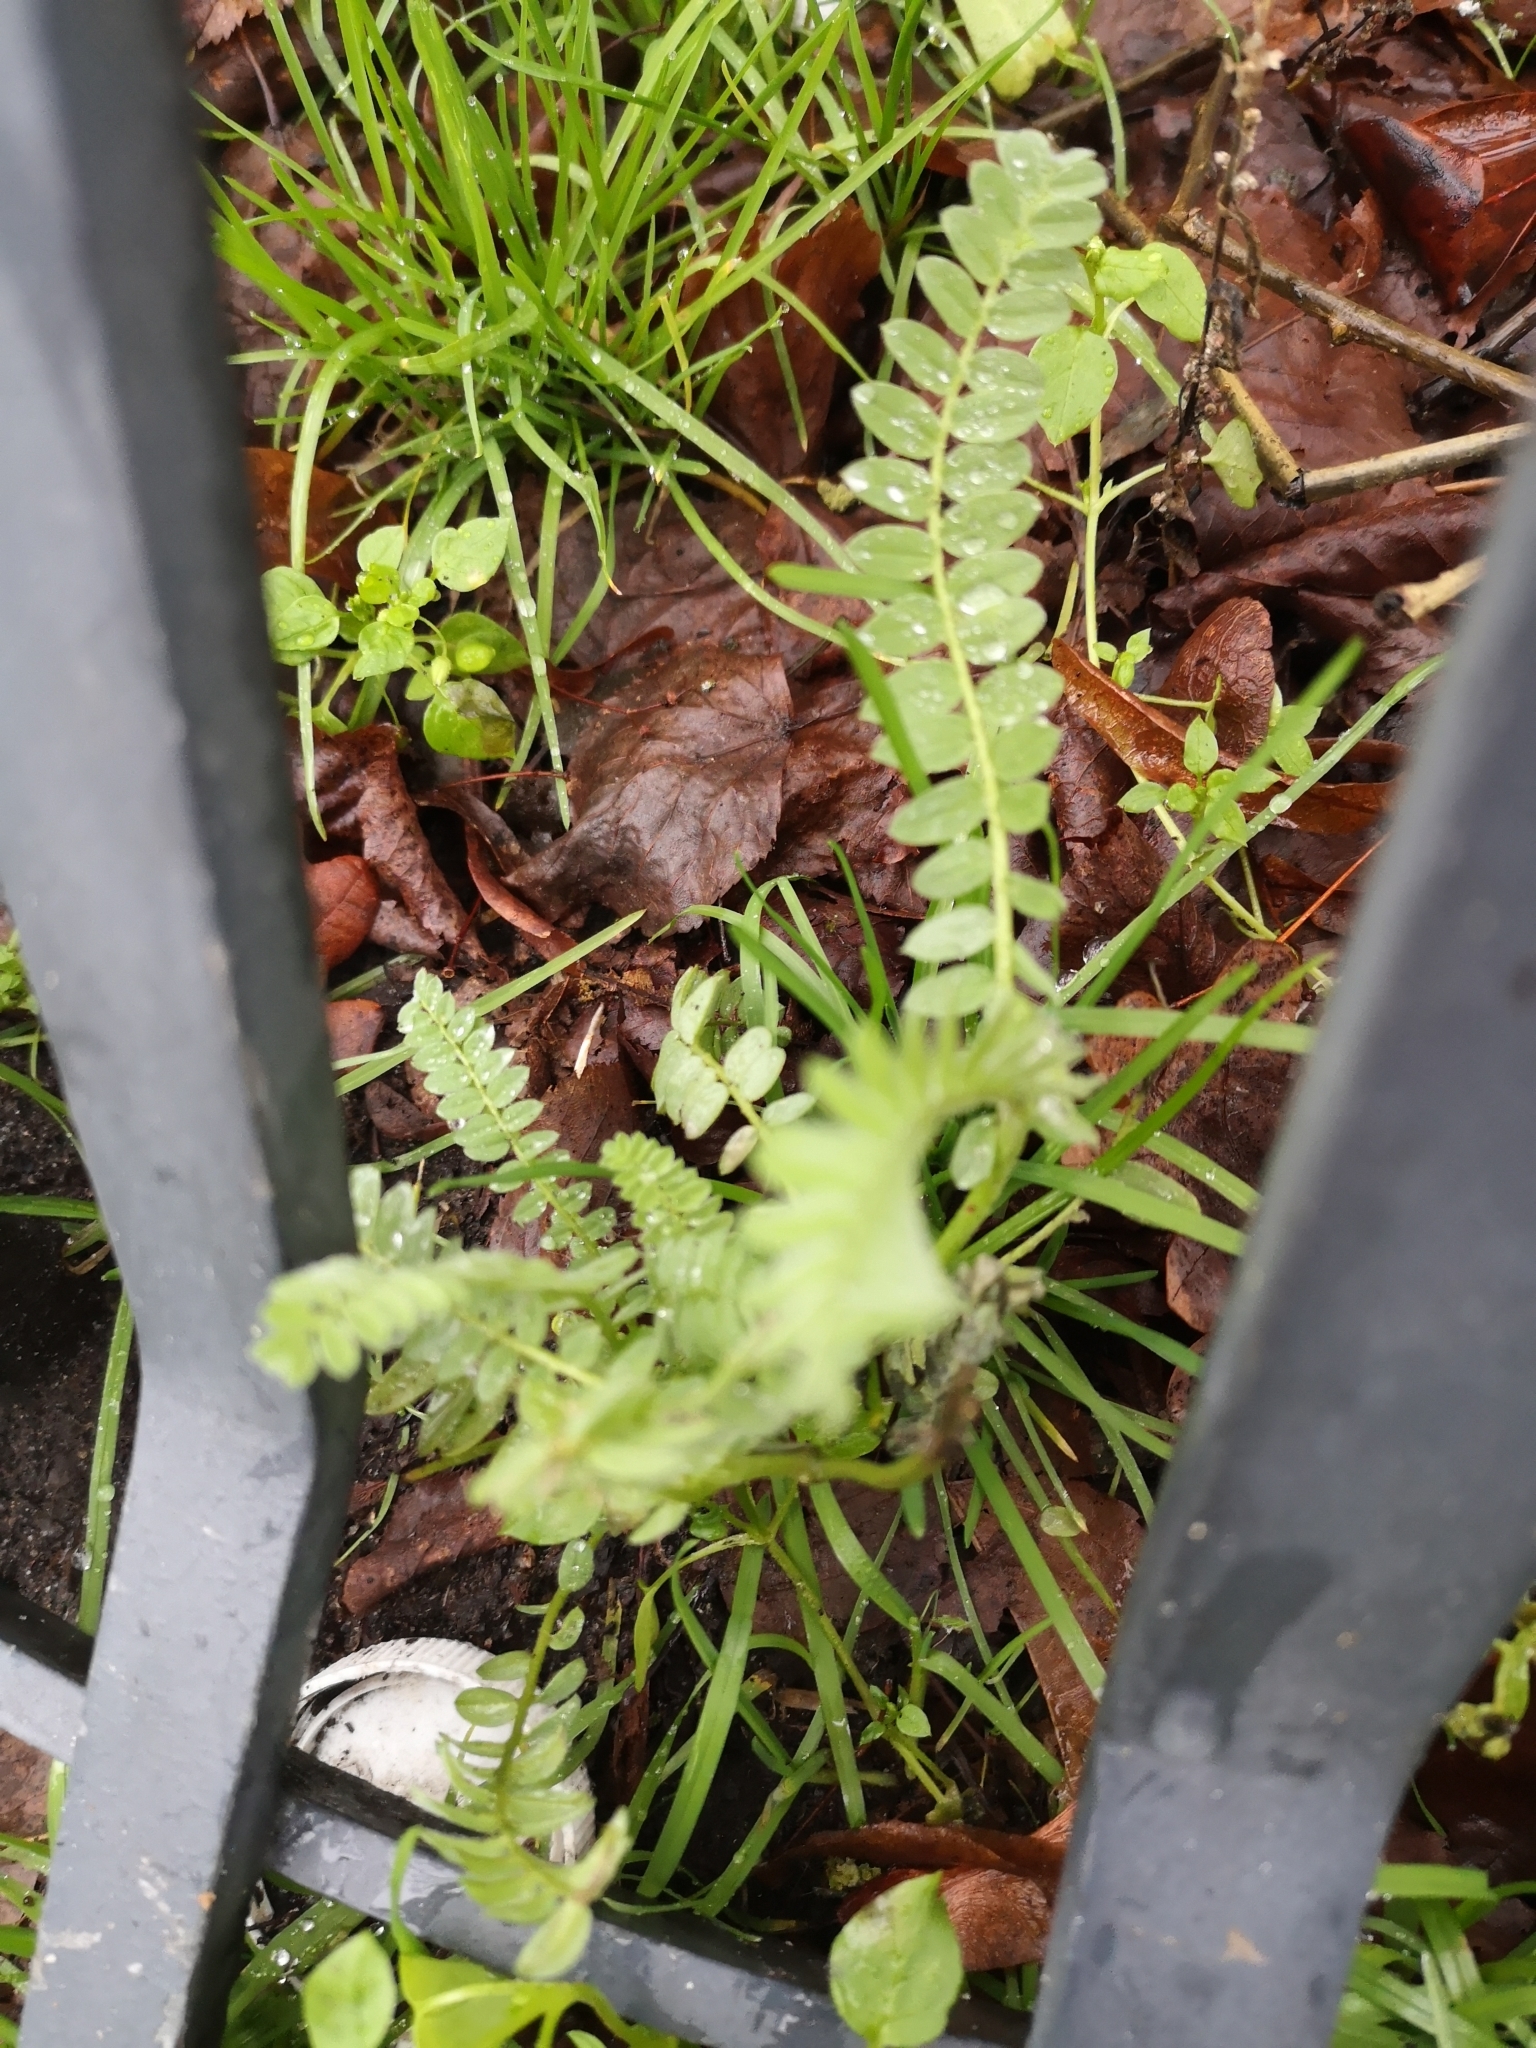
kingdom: Plantae
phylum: Tracheophyta
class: Magnoliopsida
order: Fabales
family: Fabaceae
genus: Ornithopus
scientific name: Ornithopus perpusillus
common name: Bird's-foot
